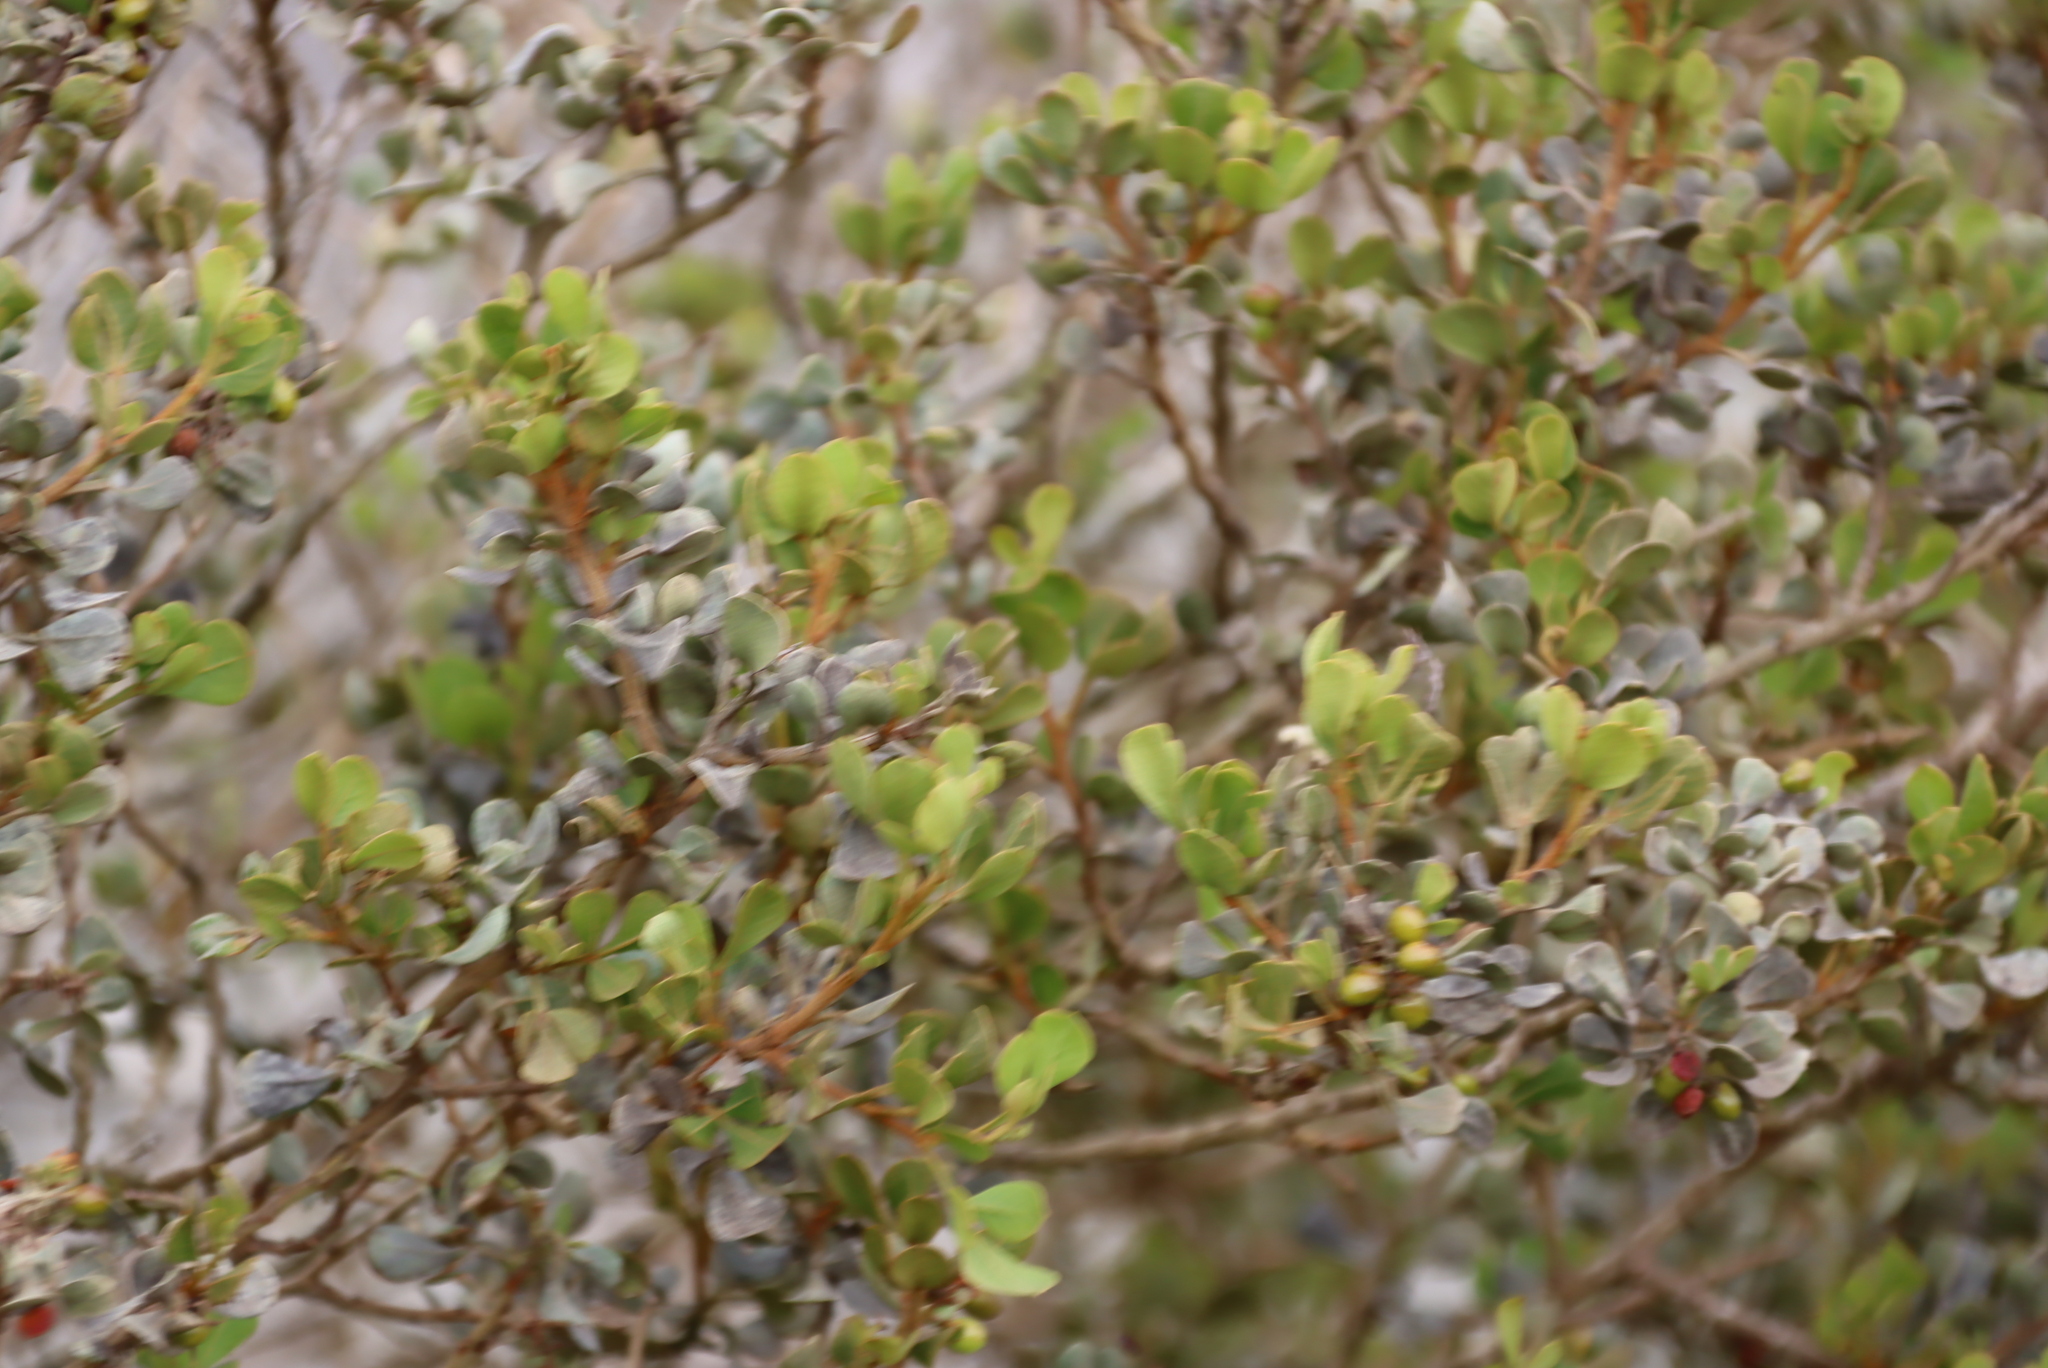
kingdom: Plantae
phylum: Tracheophyta
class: Magnoliopsida
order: Sapindales
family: Anacardiaceae
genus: Searsia
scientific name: Searsia glauca
